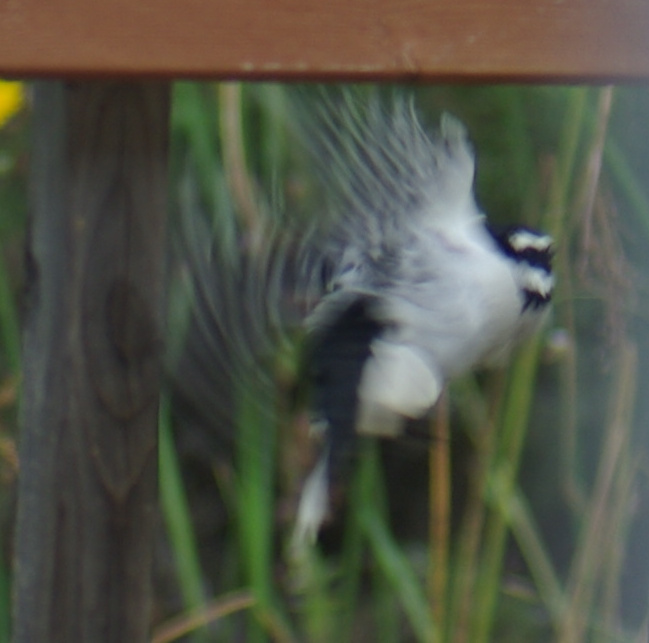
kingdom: Animalia
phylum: Chordata
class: Aves
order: Piciformes
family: Picidae
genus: Dryobates
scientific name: Dryobates pubescens
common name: Downy woodpecker
